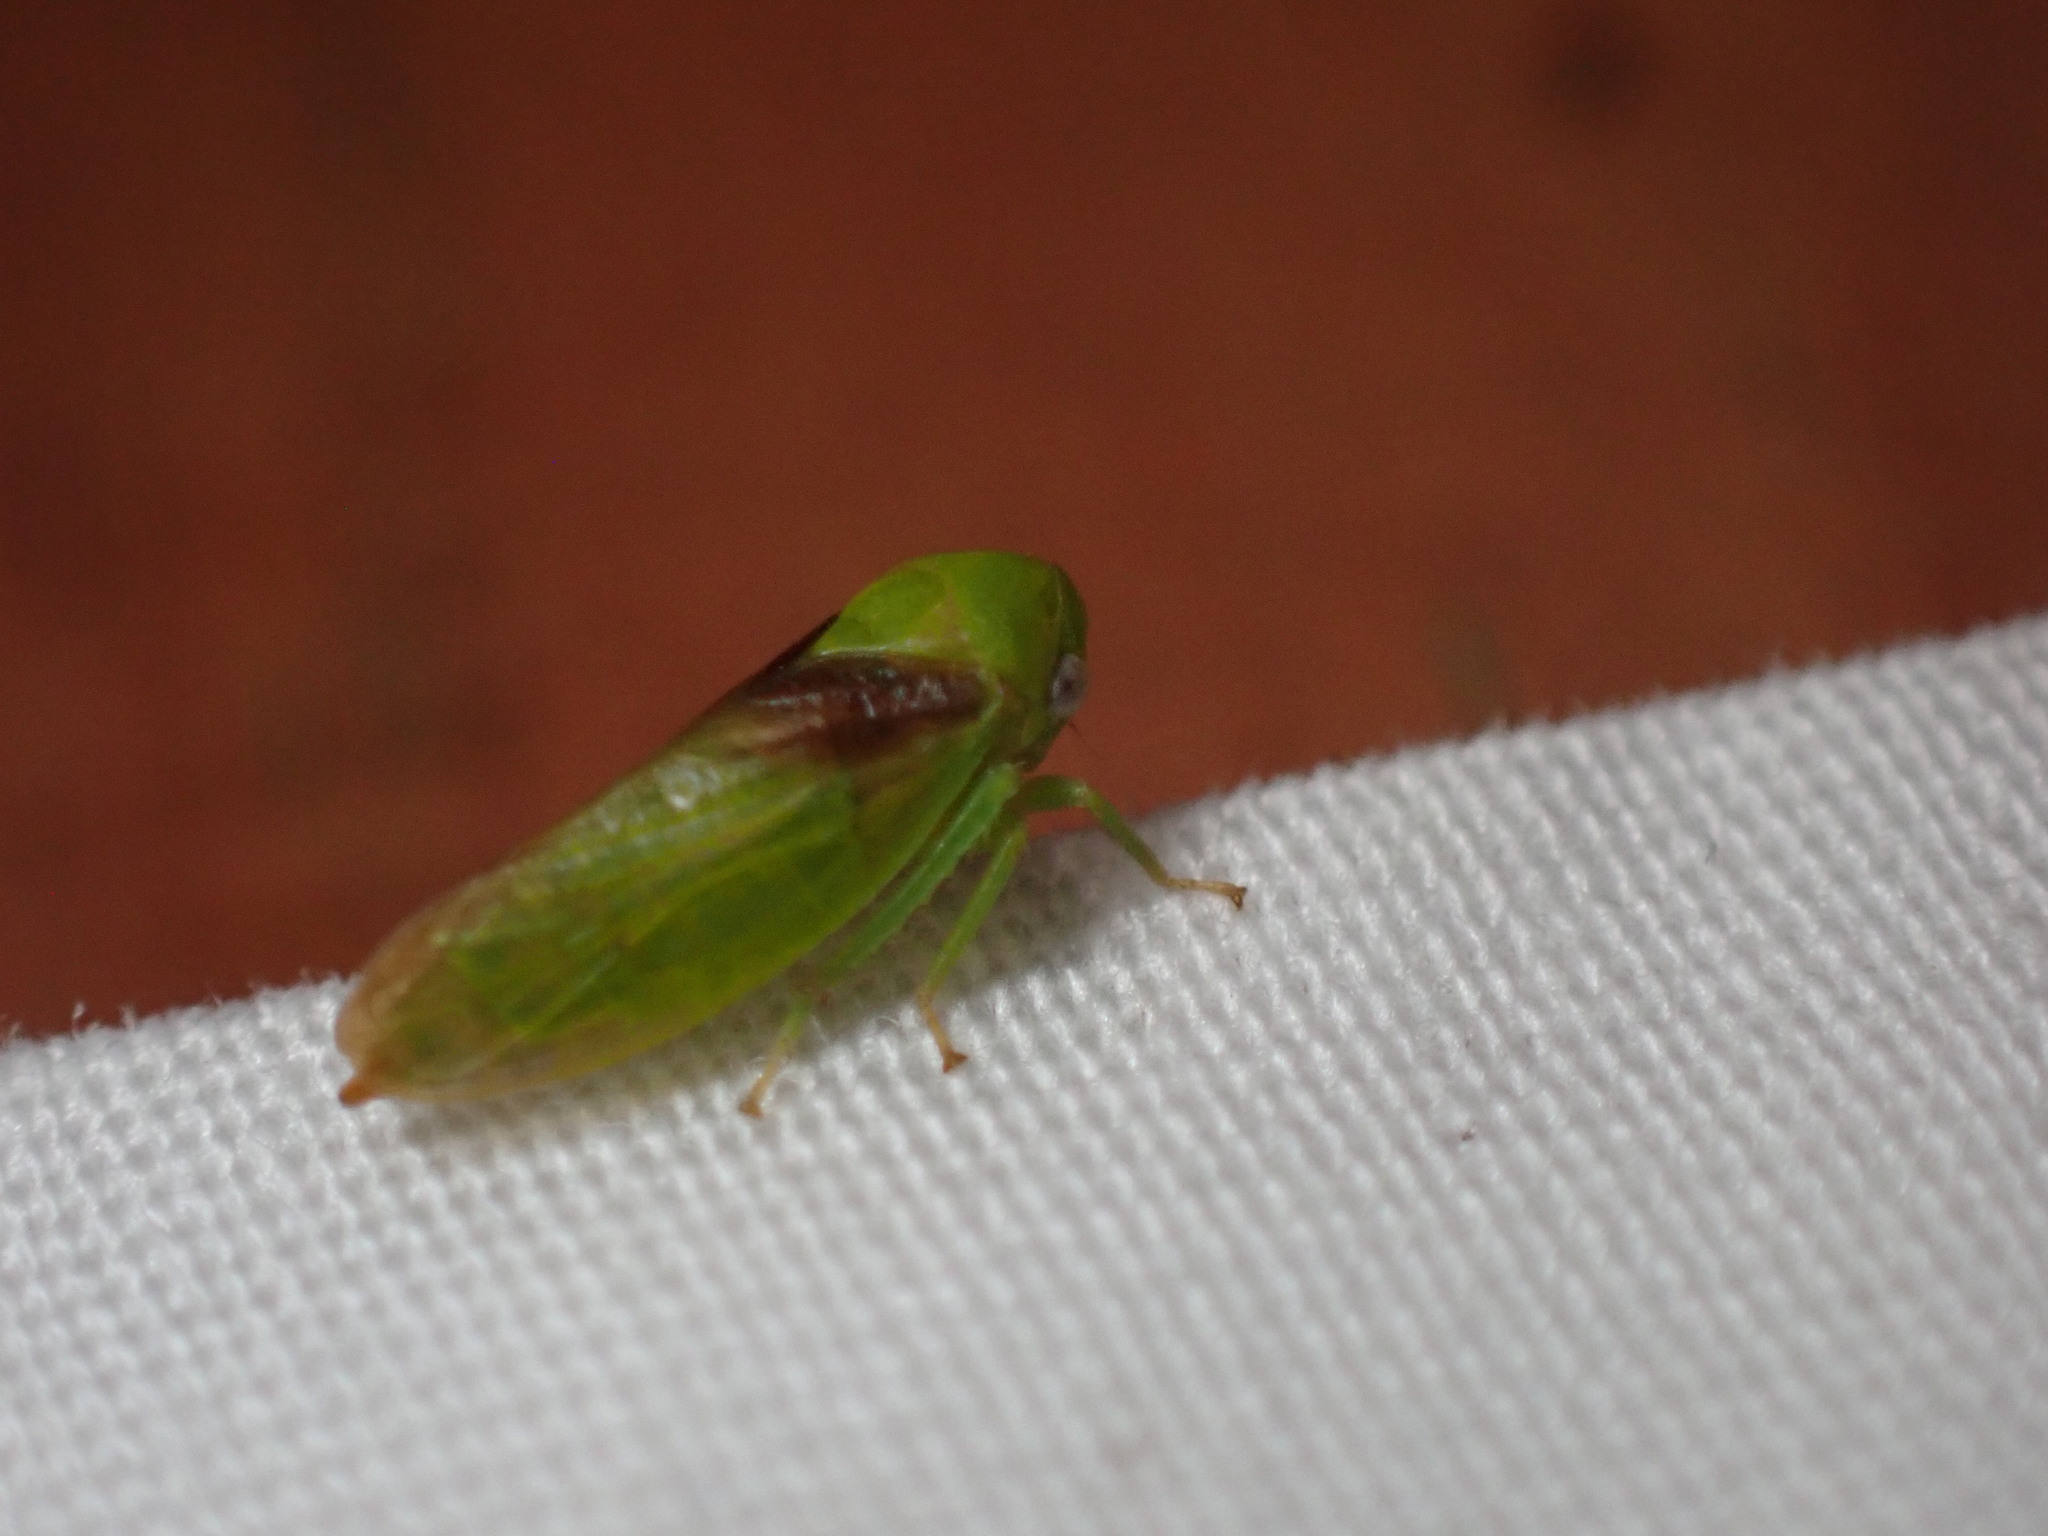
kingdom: Animalia
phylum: Arthropoda
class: Insecta
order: Hemiptera
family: Cicadellidae
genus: Macropsis
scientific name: Macropsis basalis
